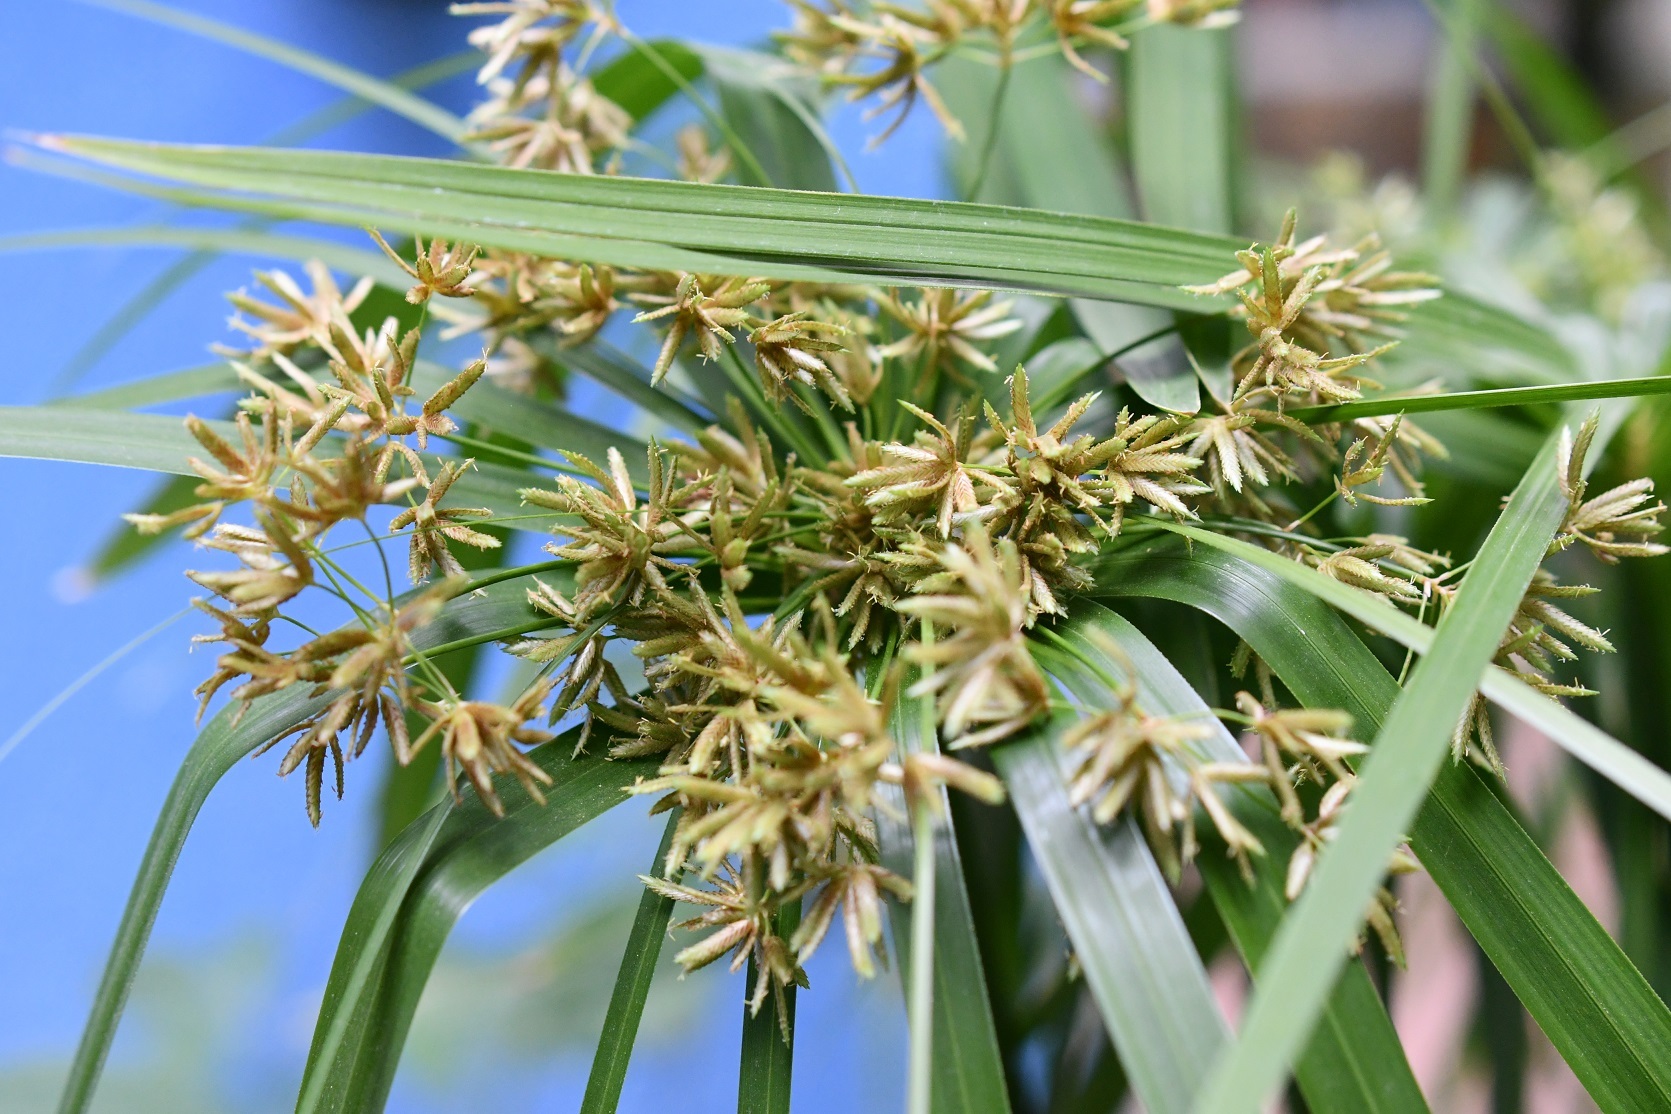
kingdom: Plantae
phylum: Tracheophyta
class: Liliopsida
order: Poales
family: Cyperaceae
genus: Cyperus
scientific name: Cyperus alternifolius
